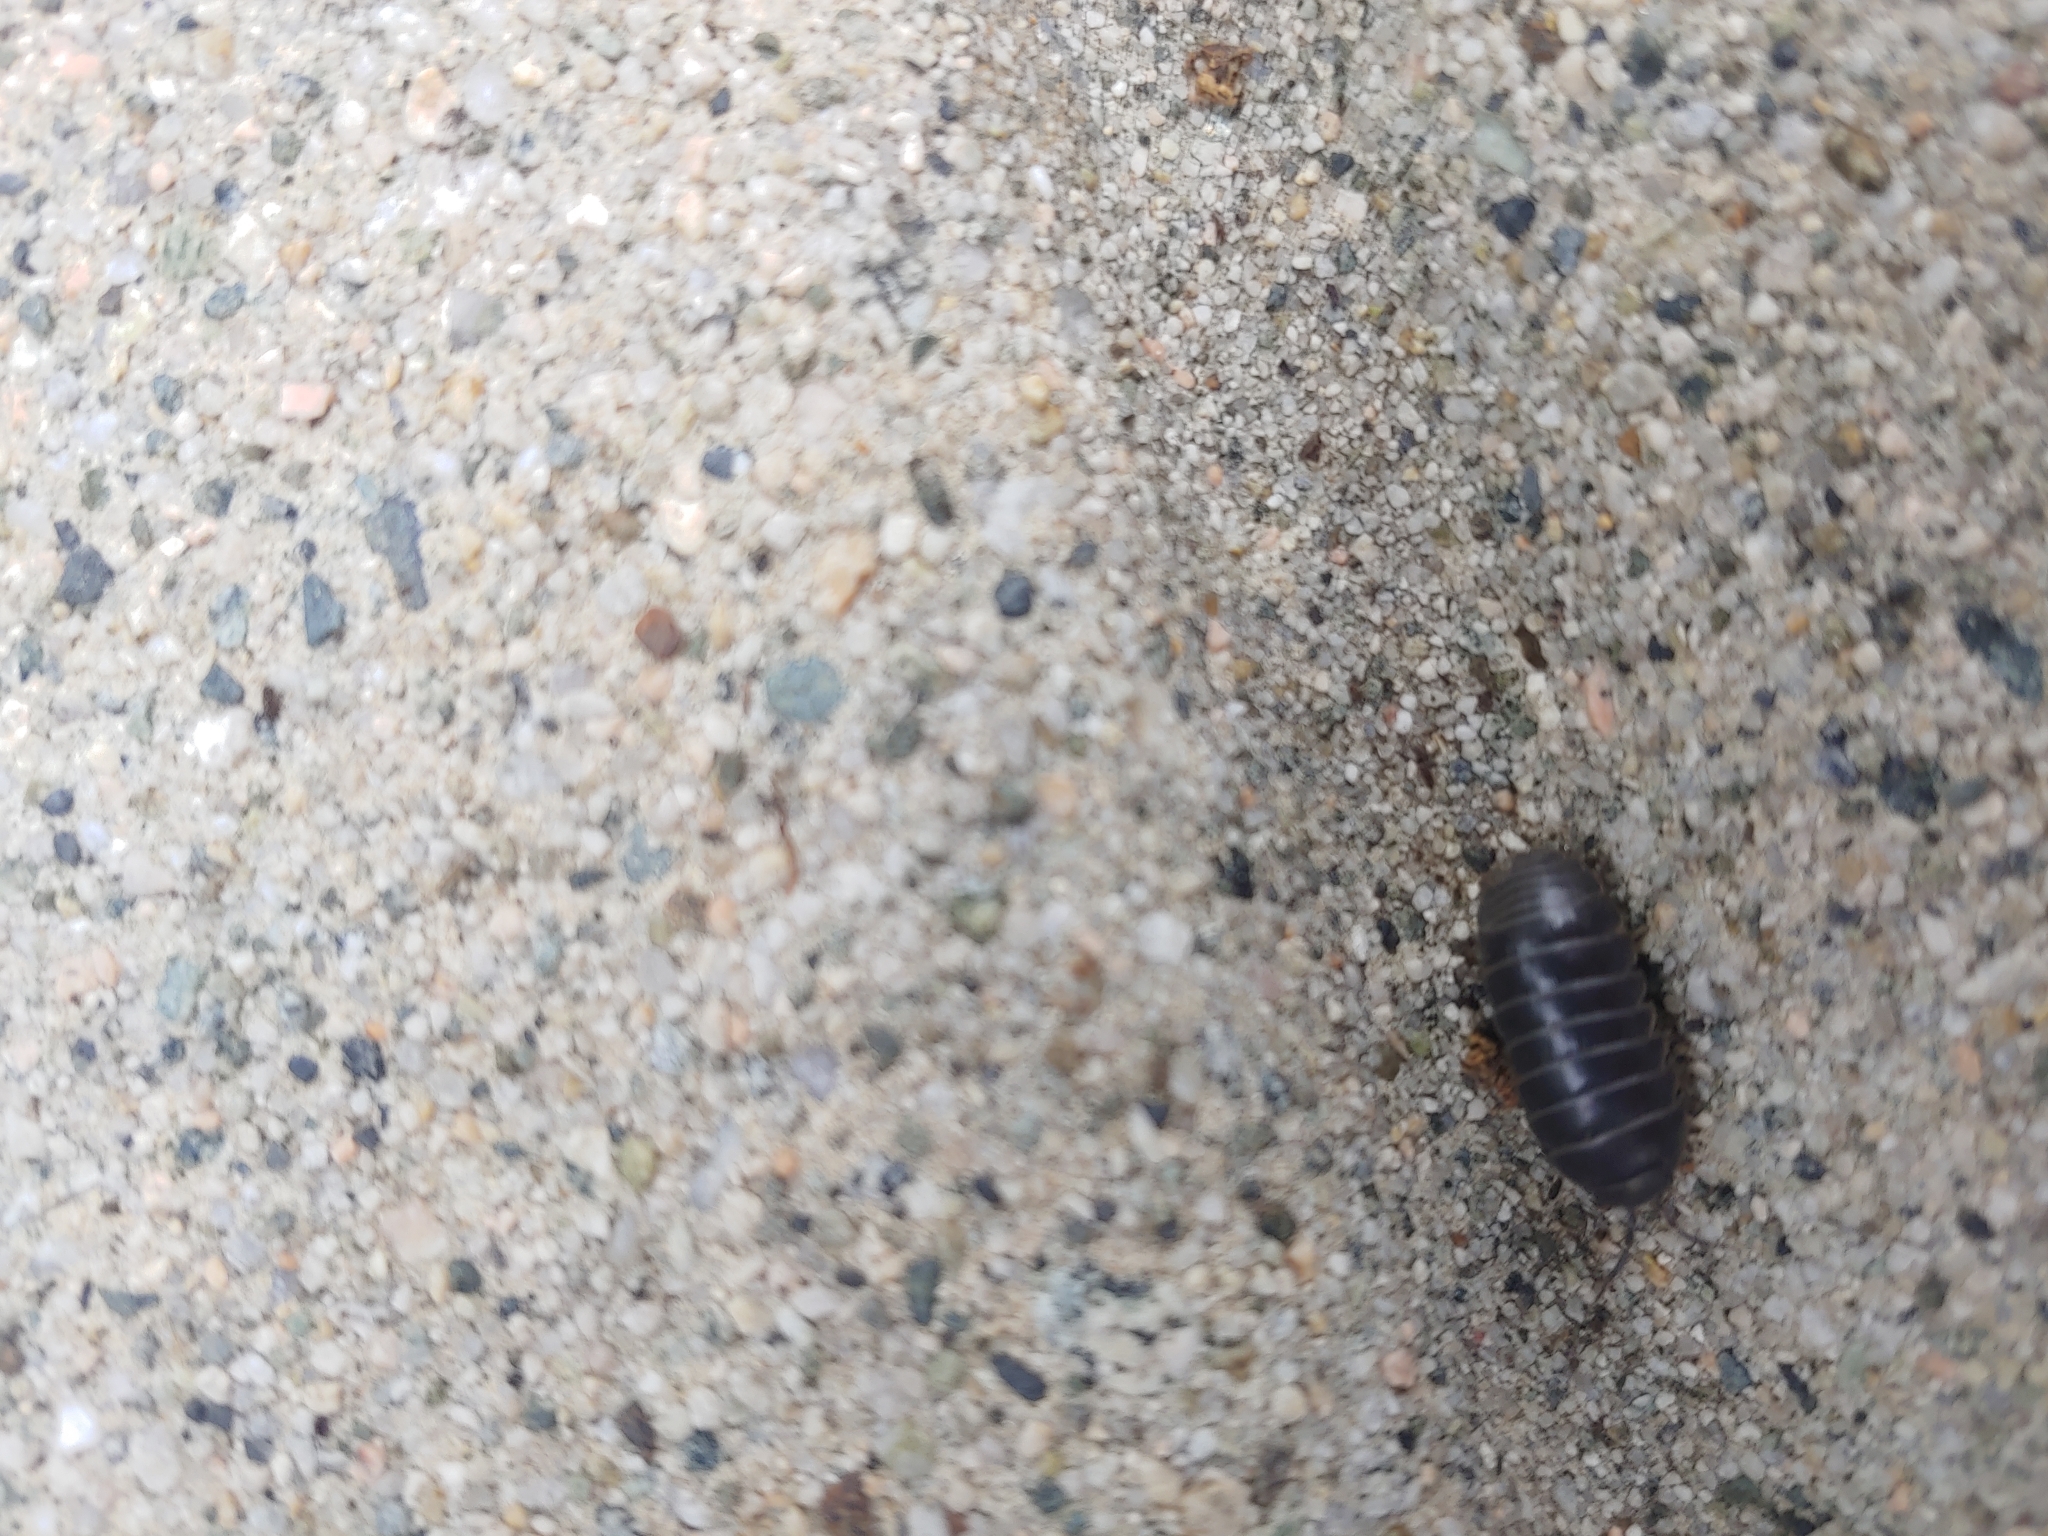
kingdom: Animalia
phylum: Arthropoda
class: Malacostraca
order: Isopoda
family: Armadillidiidae
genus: Armadillidium
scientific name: Armadillidium vulgare
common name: Common pill woodlouse
